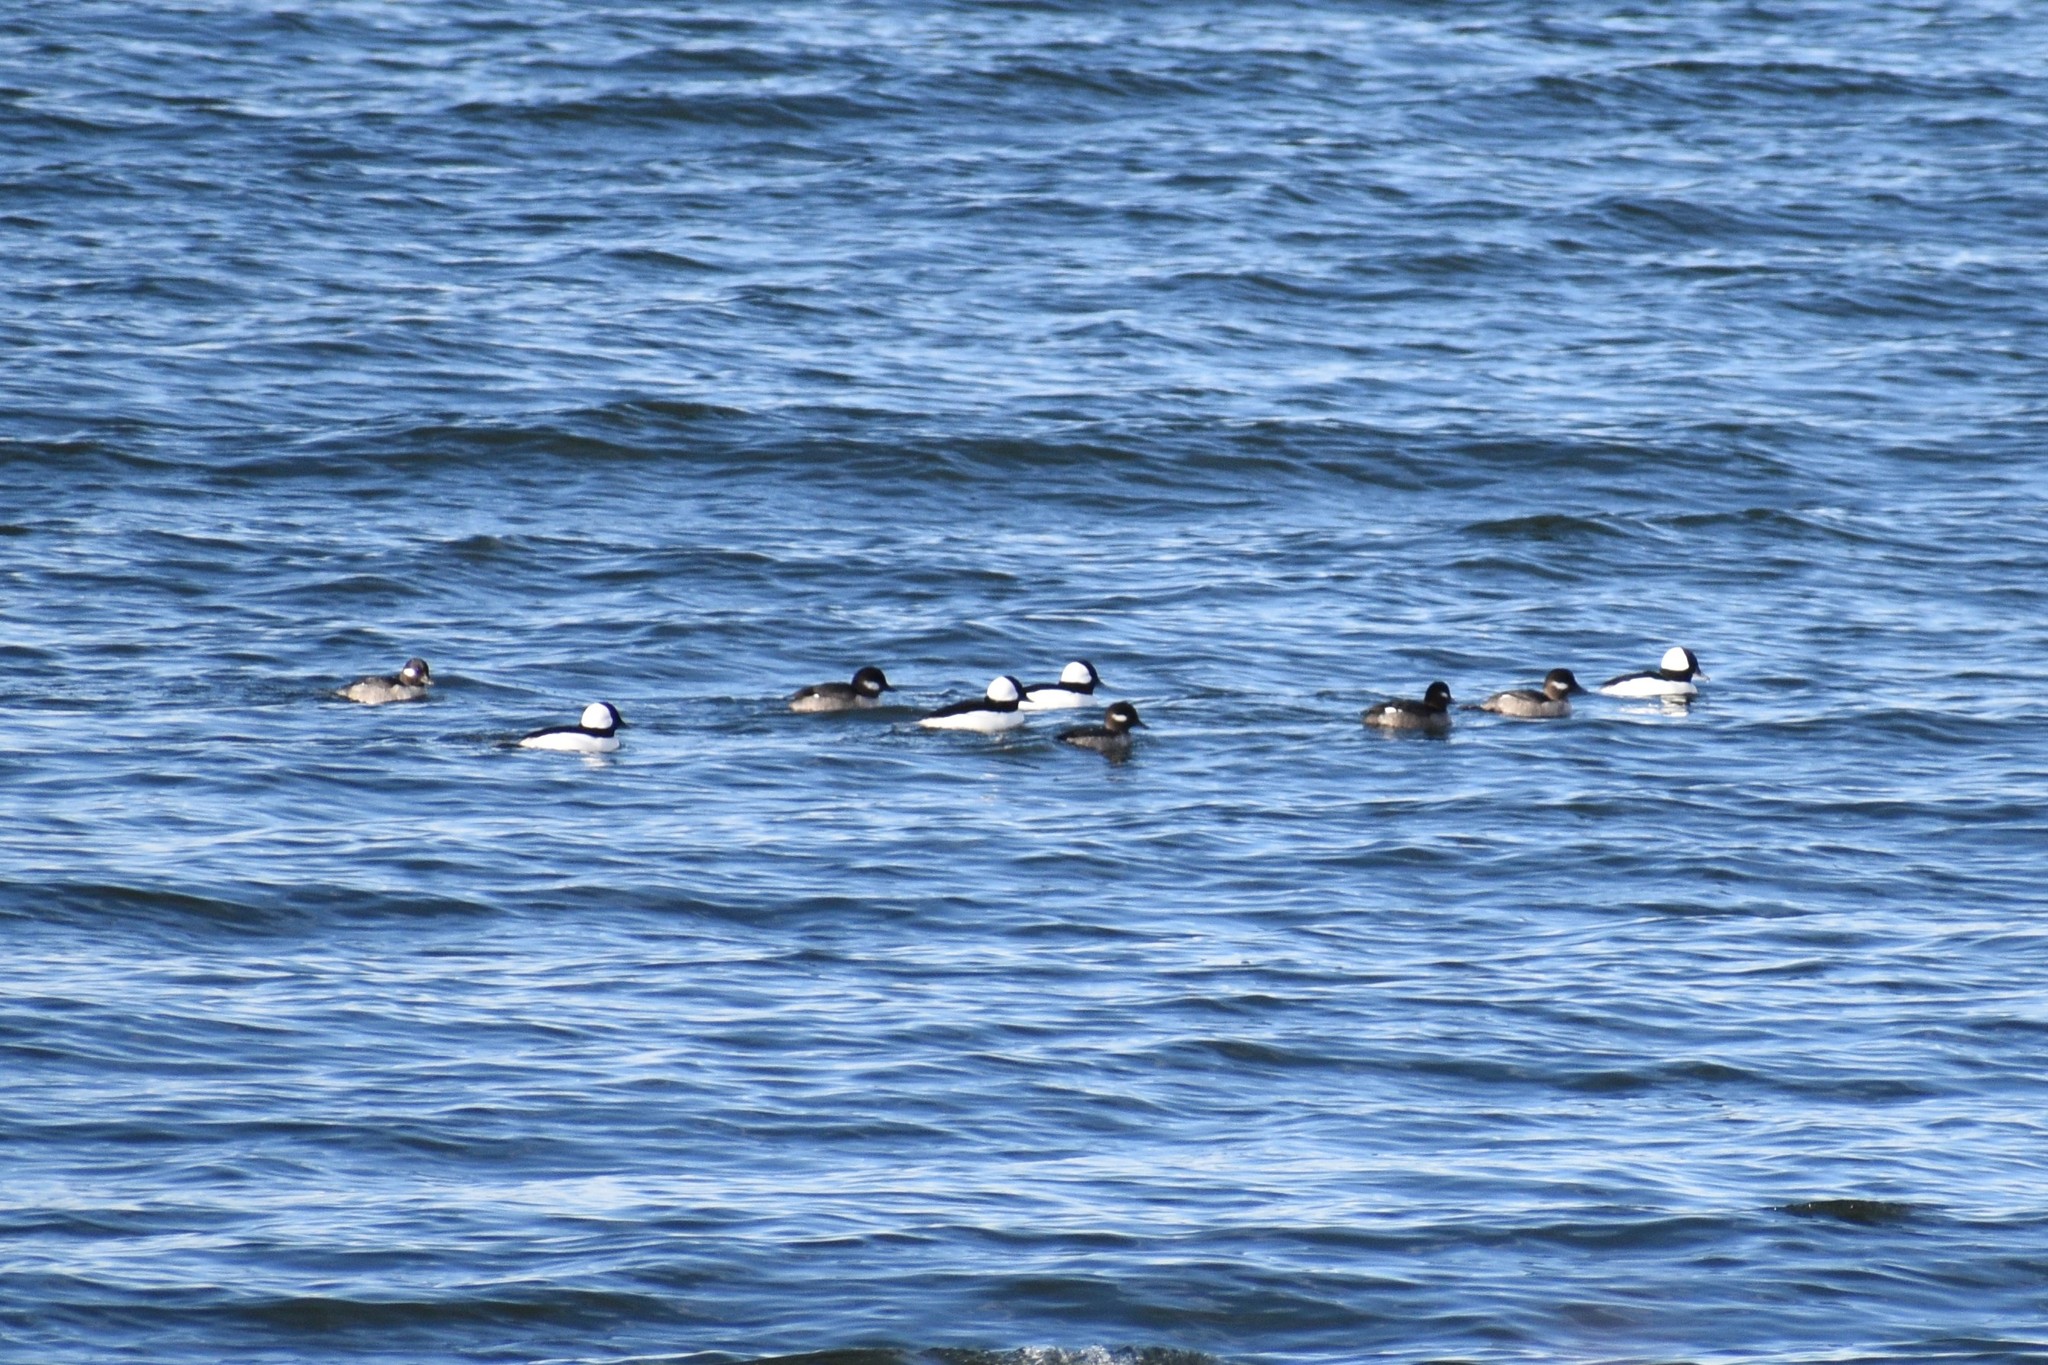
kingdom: Animalia
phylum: Chordata
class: Aves
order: Anseriformes
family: Anatidae
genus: Bucephala
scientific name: Bucephala albeola
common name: Bufflehead
